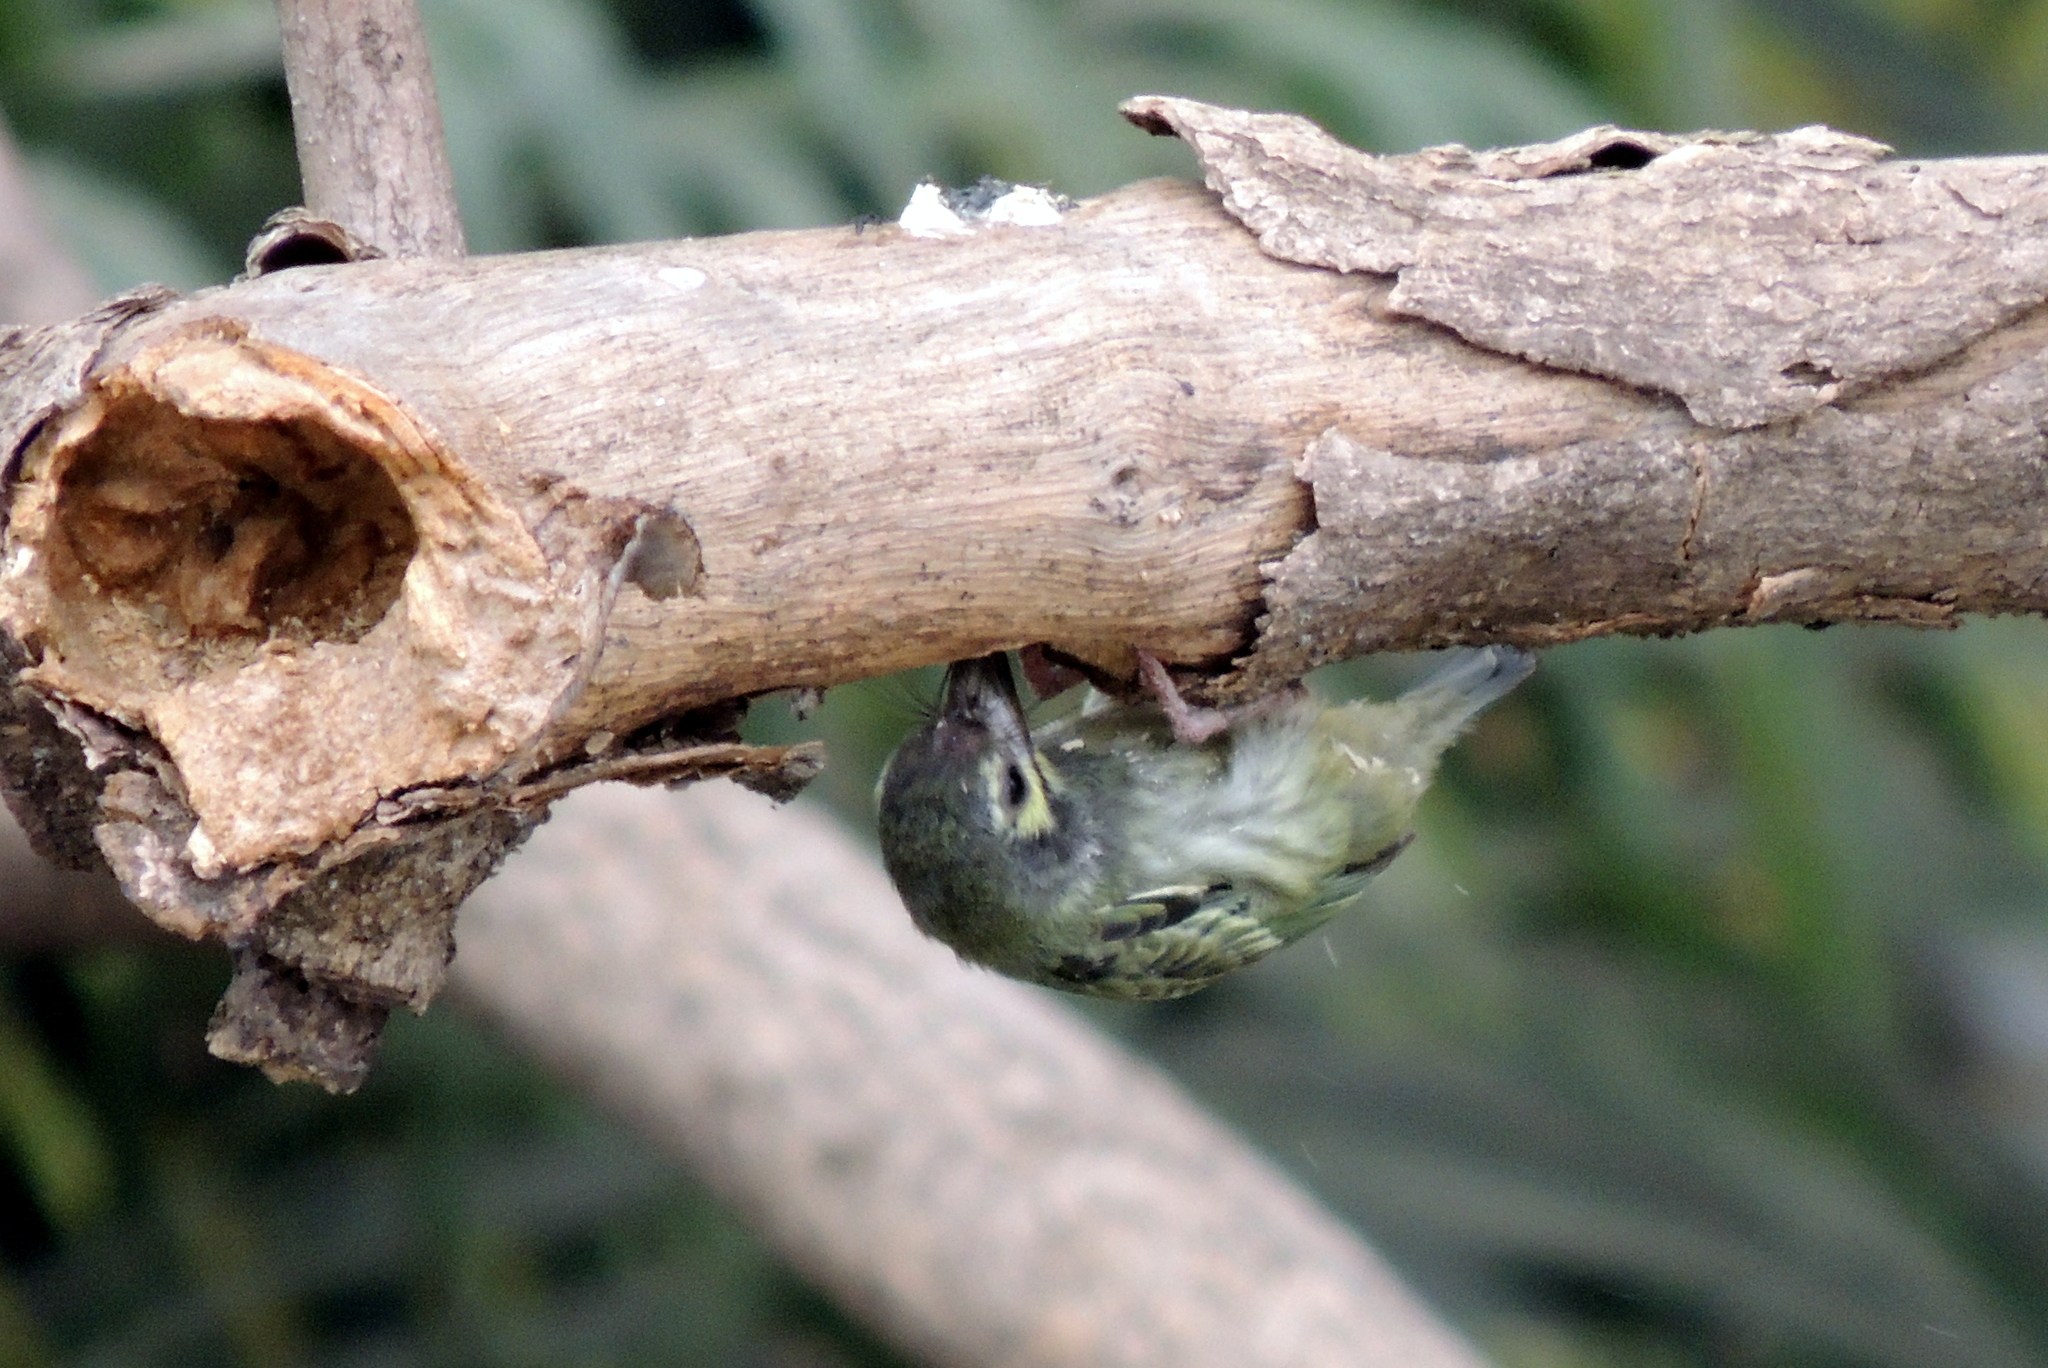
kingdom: Animalia
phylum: Chordata
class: Aves
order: Piciformes
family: Megalaimidae
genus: Psilopogon
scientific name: Psilopogon haemacephalus
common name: Coppersmith barbet
